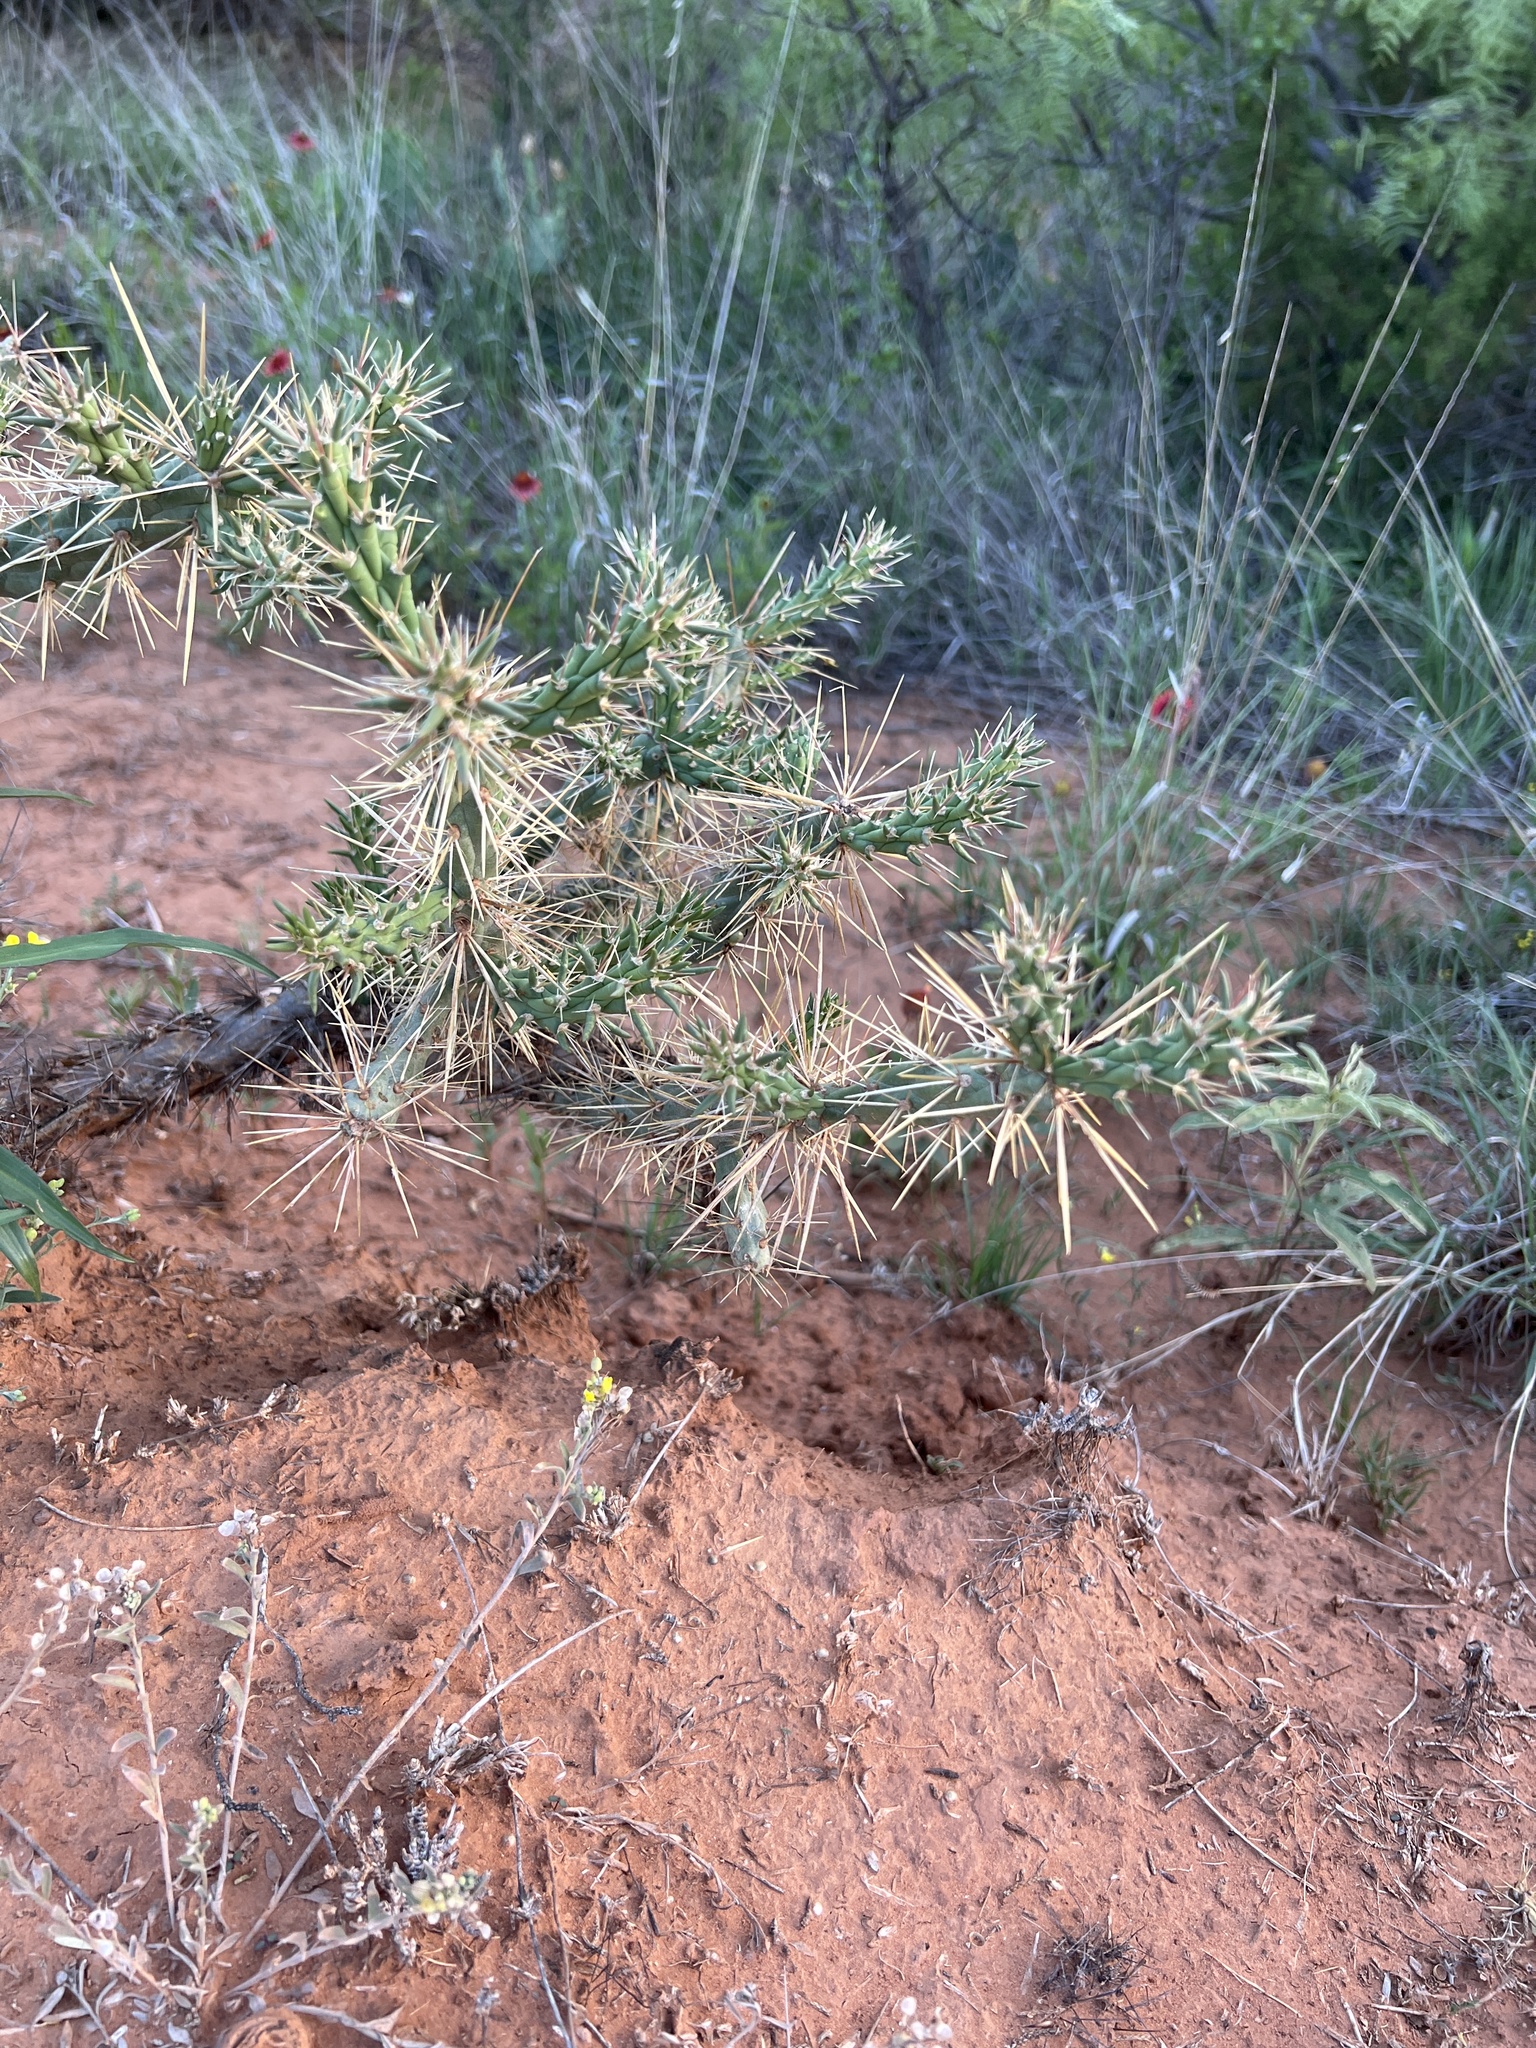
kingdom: Plantae
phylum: Tracheophyta
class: Magnoliopsida
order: Caryophyllales
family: Cactaceae
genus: Cylindropuntia
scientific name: Cylindropuntia davisii
